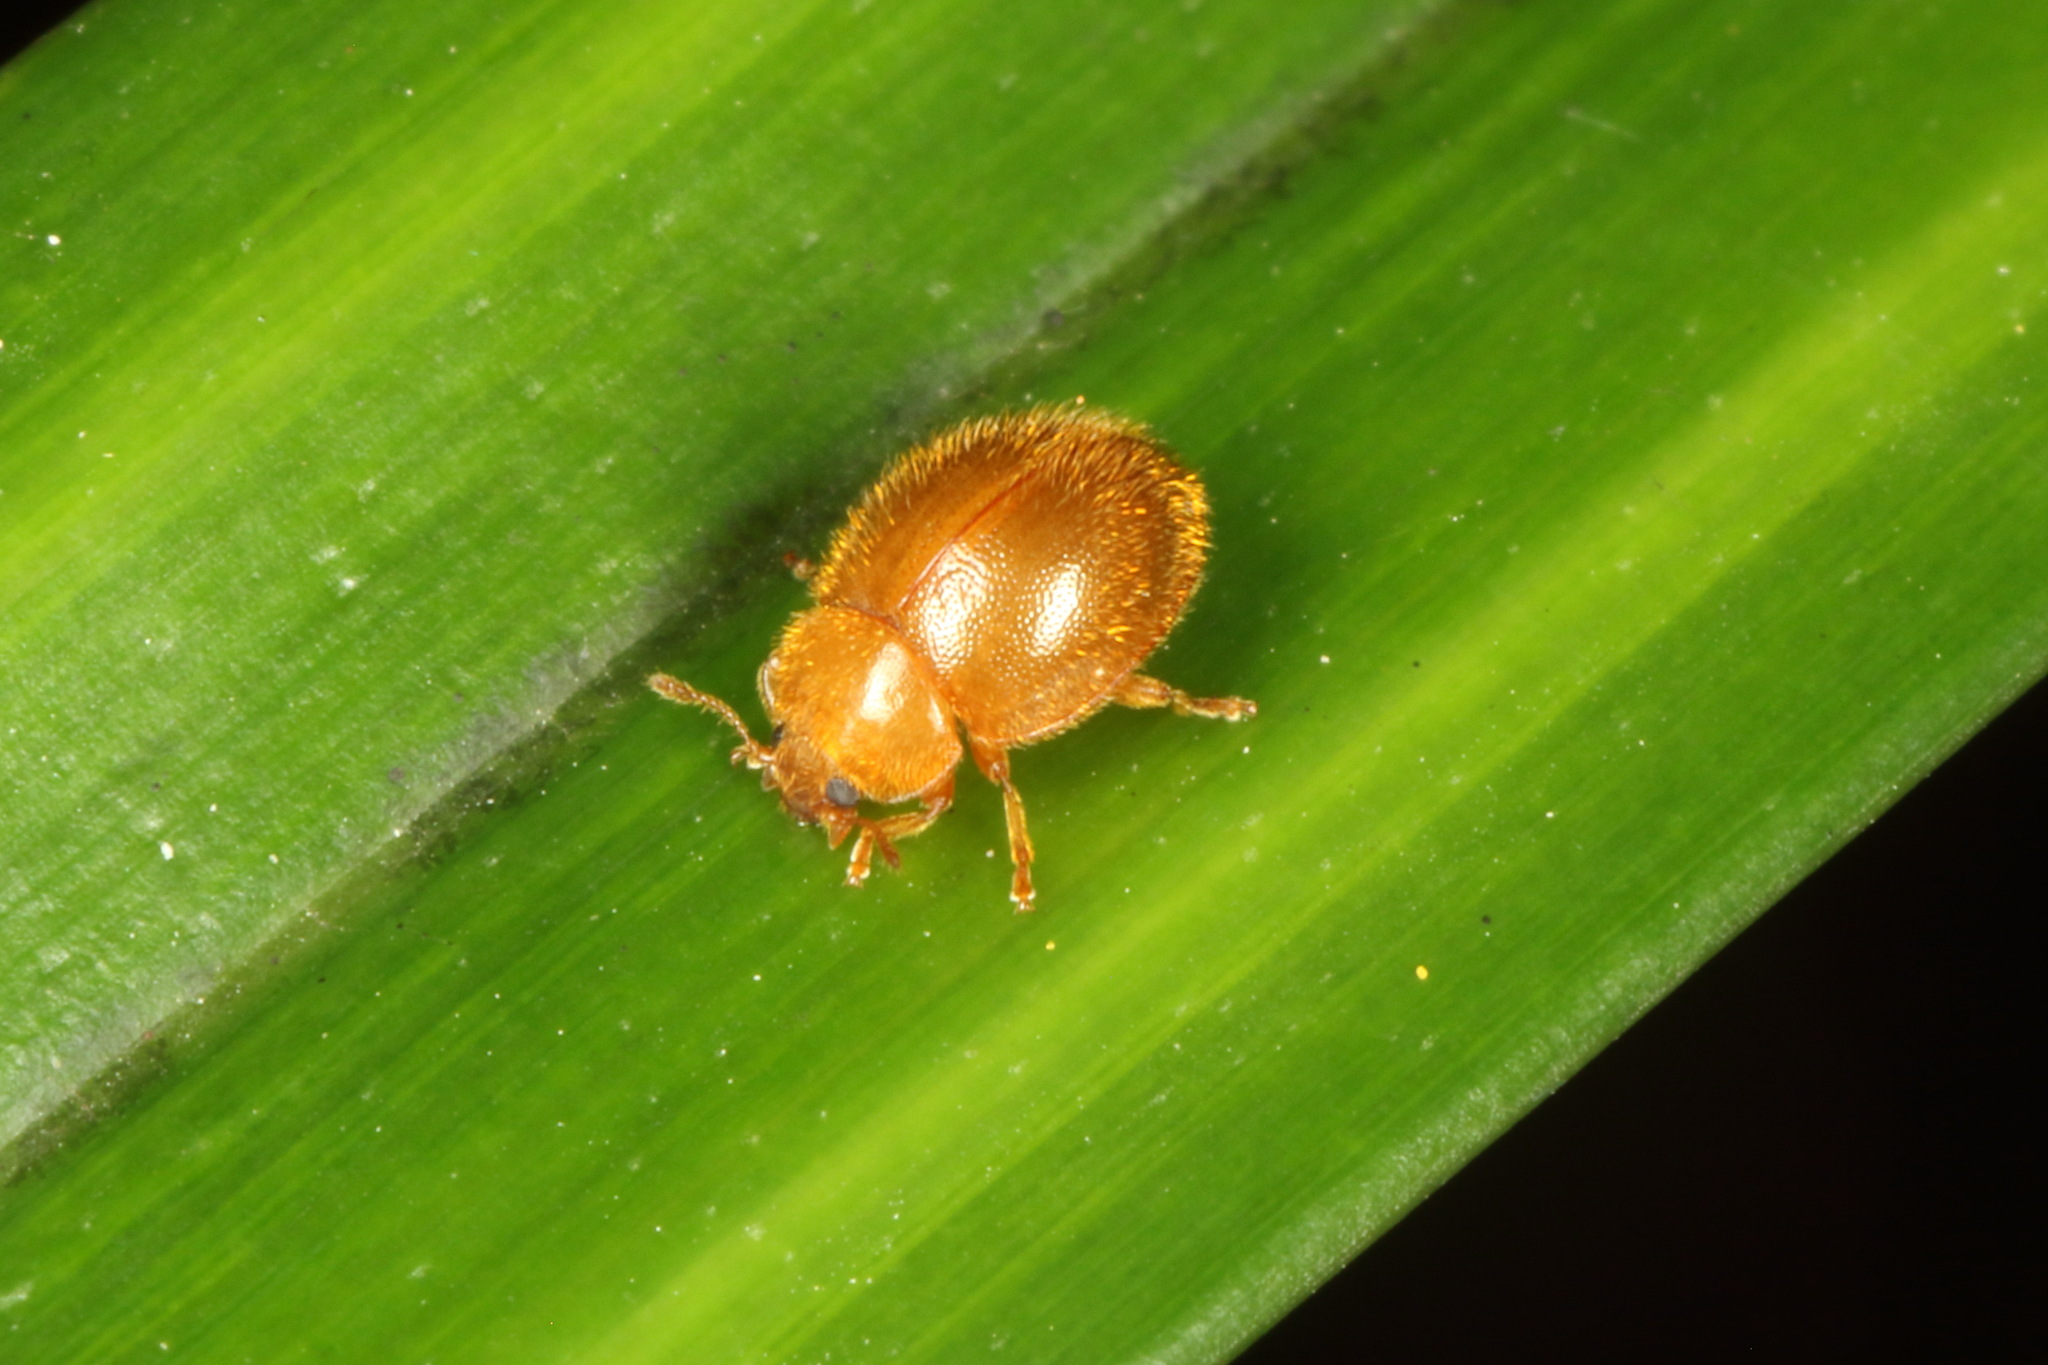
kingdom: Animalia
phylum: Arthropoda
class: Insecta
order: Coleoptera
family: Coccinellidae
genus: Adoxellus
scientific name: Adoxellus
